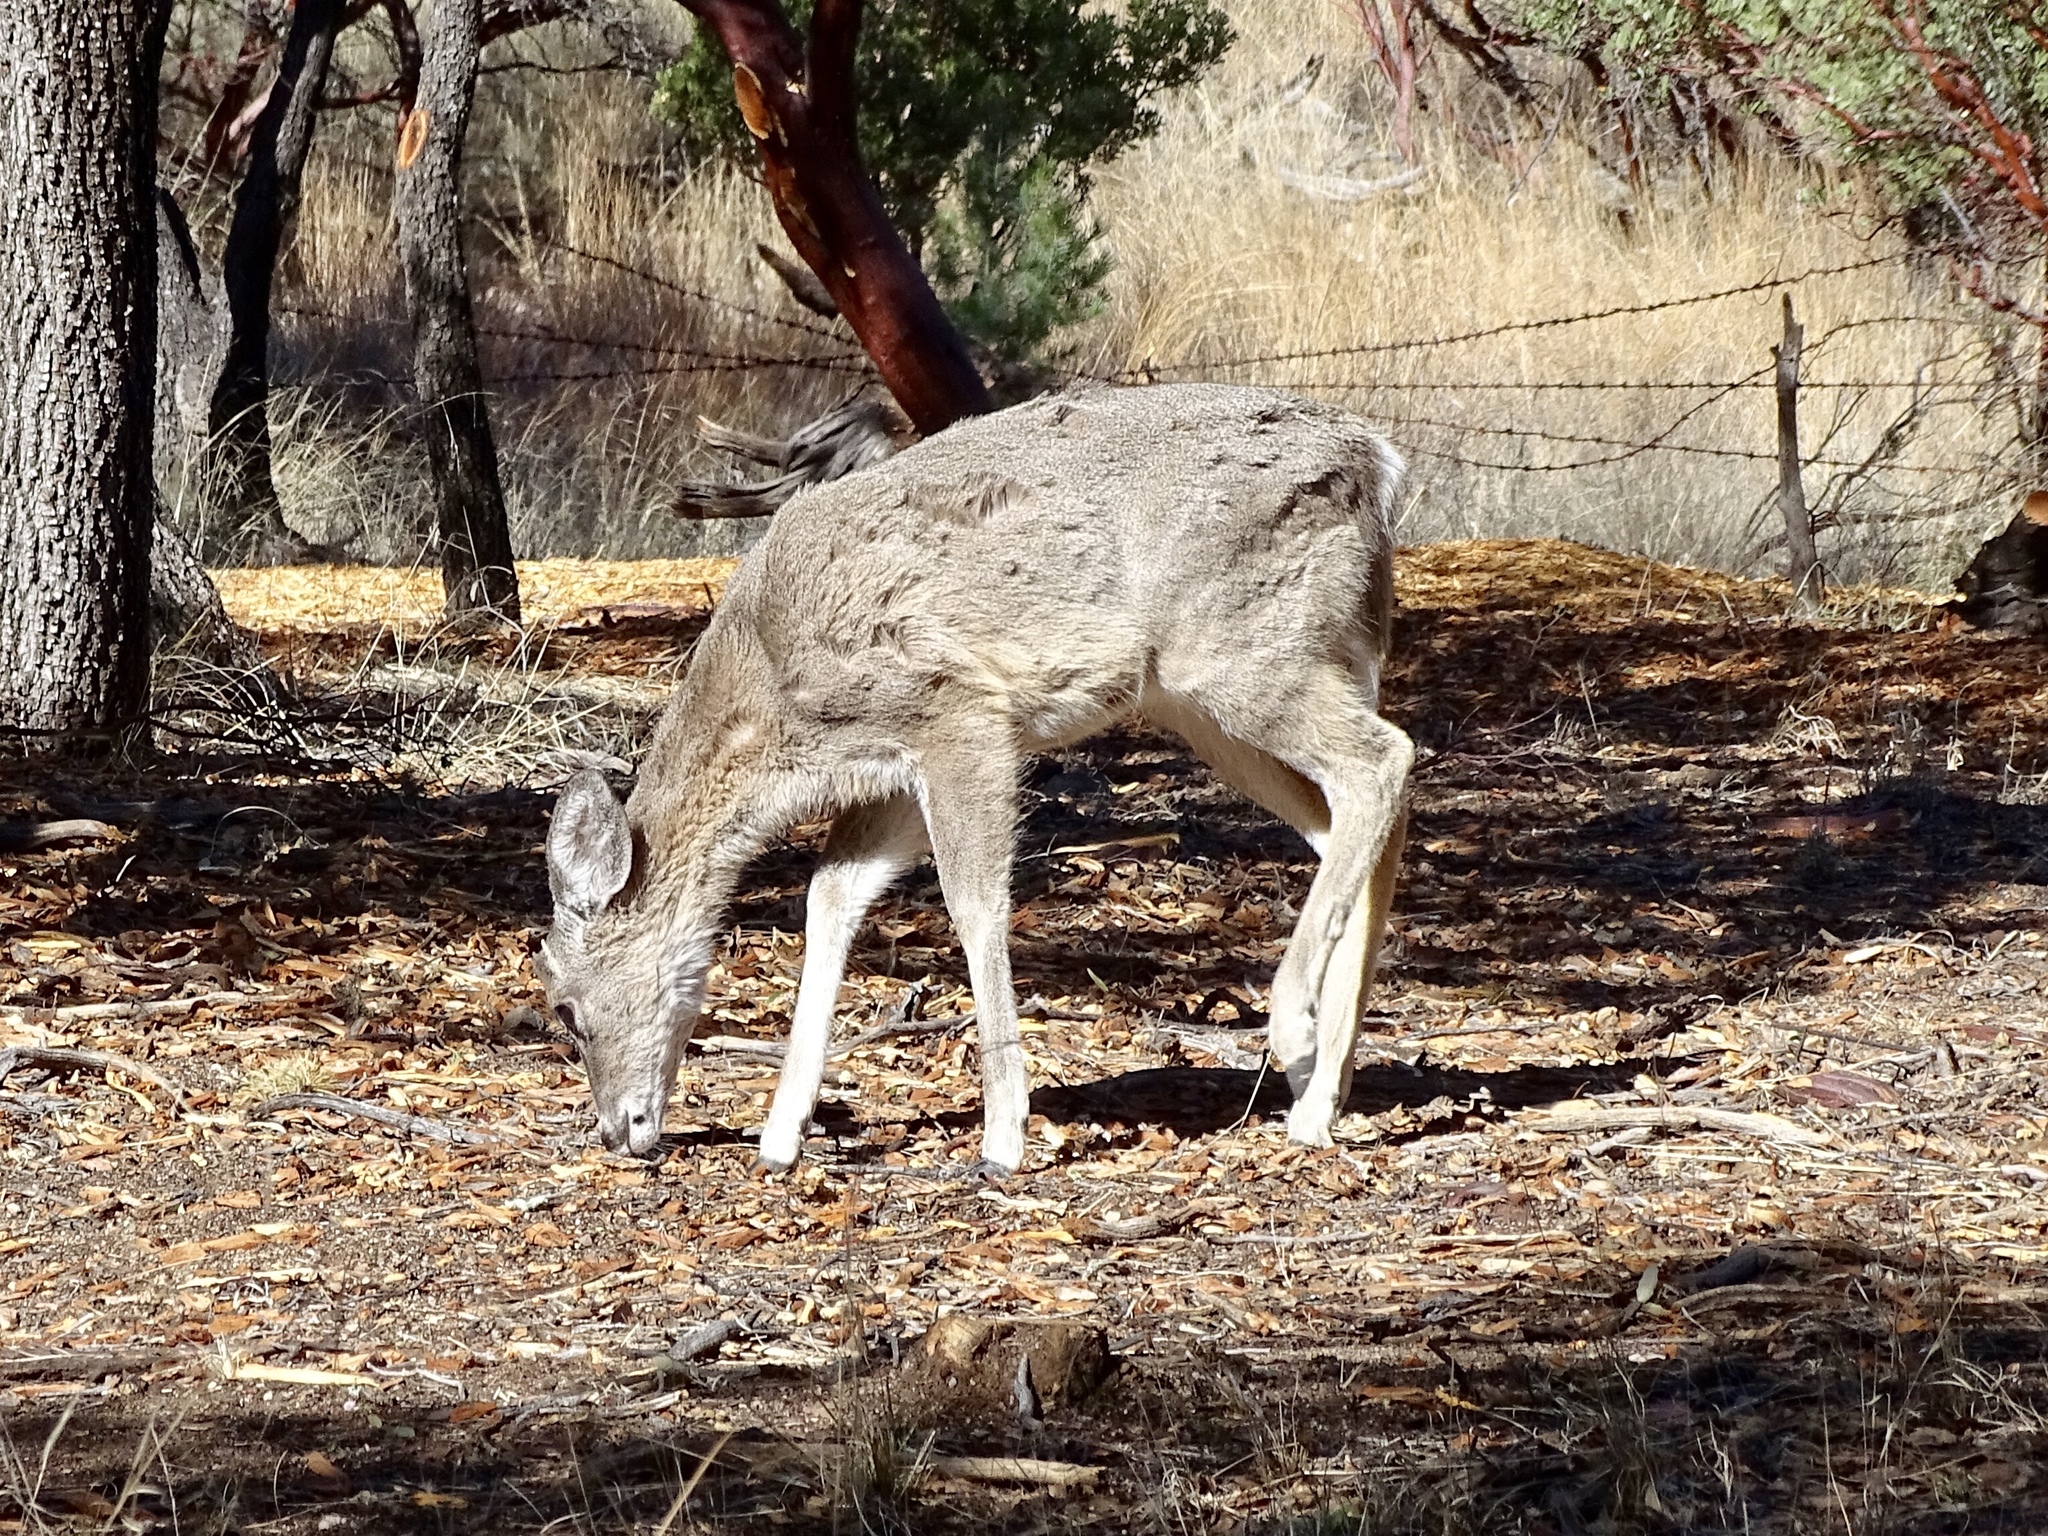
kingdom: Animalia
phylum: Chordata
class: Mammalia
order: Artiodactyla
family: Cervidae
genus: Odocoileus
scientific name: Odocoileus virginianus
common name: White-tailed deer
